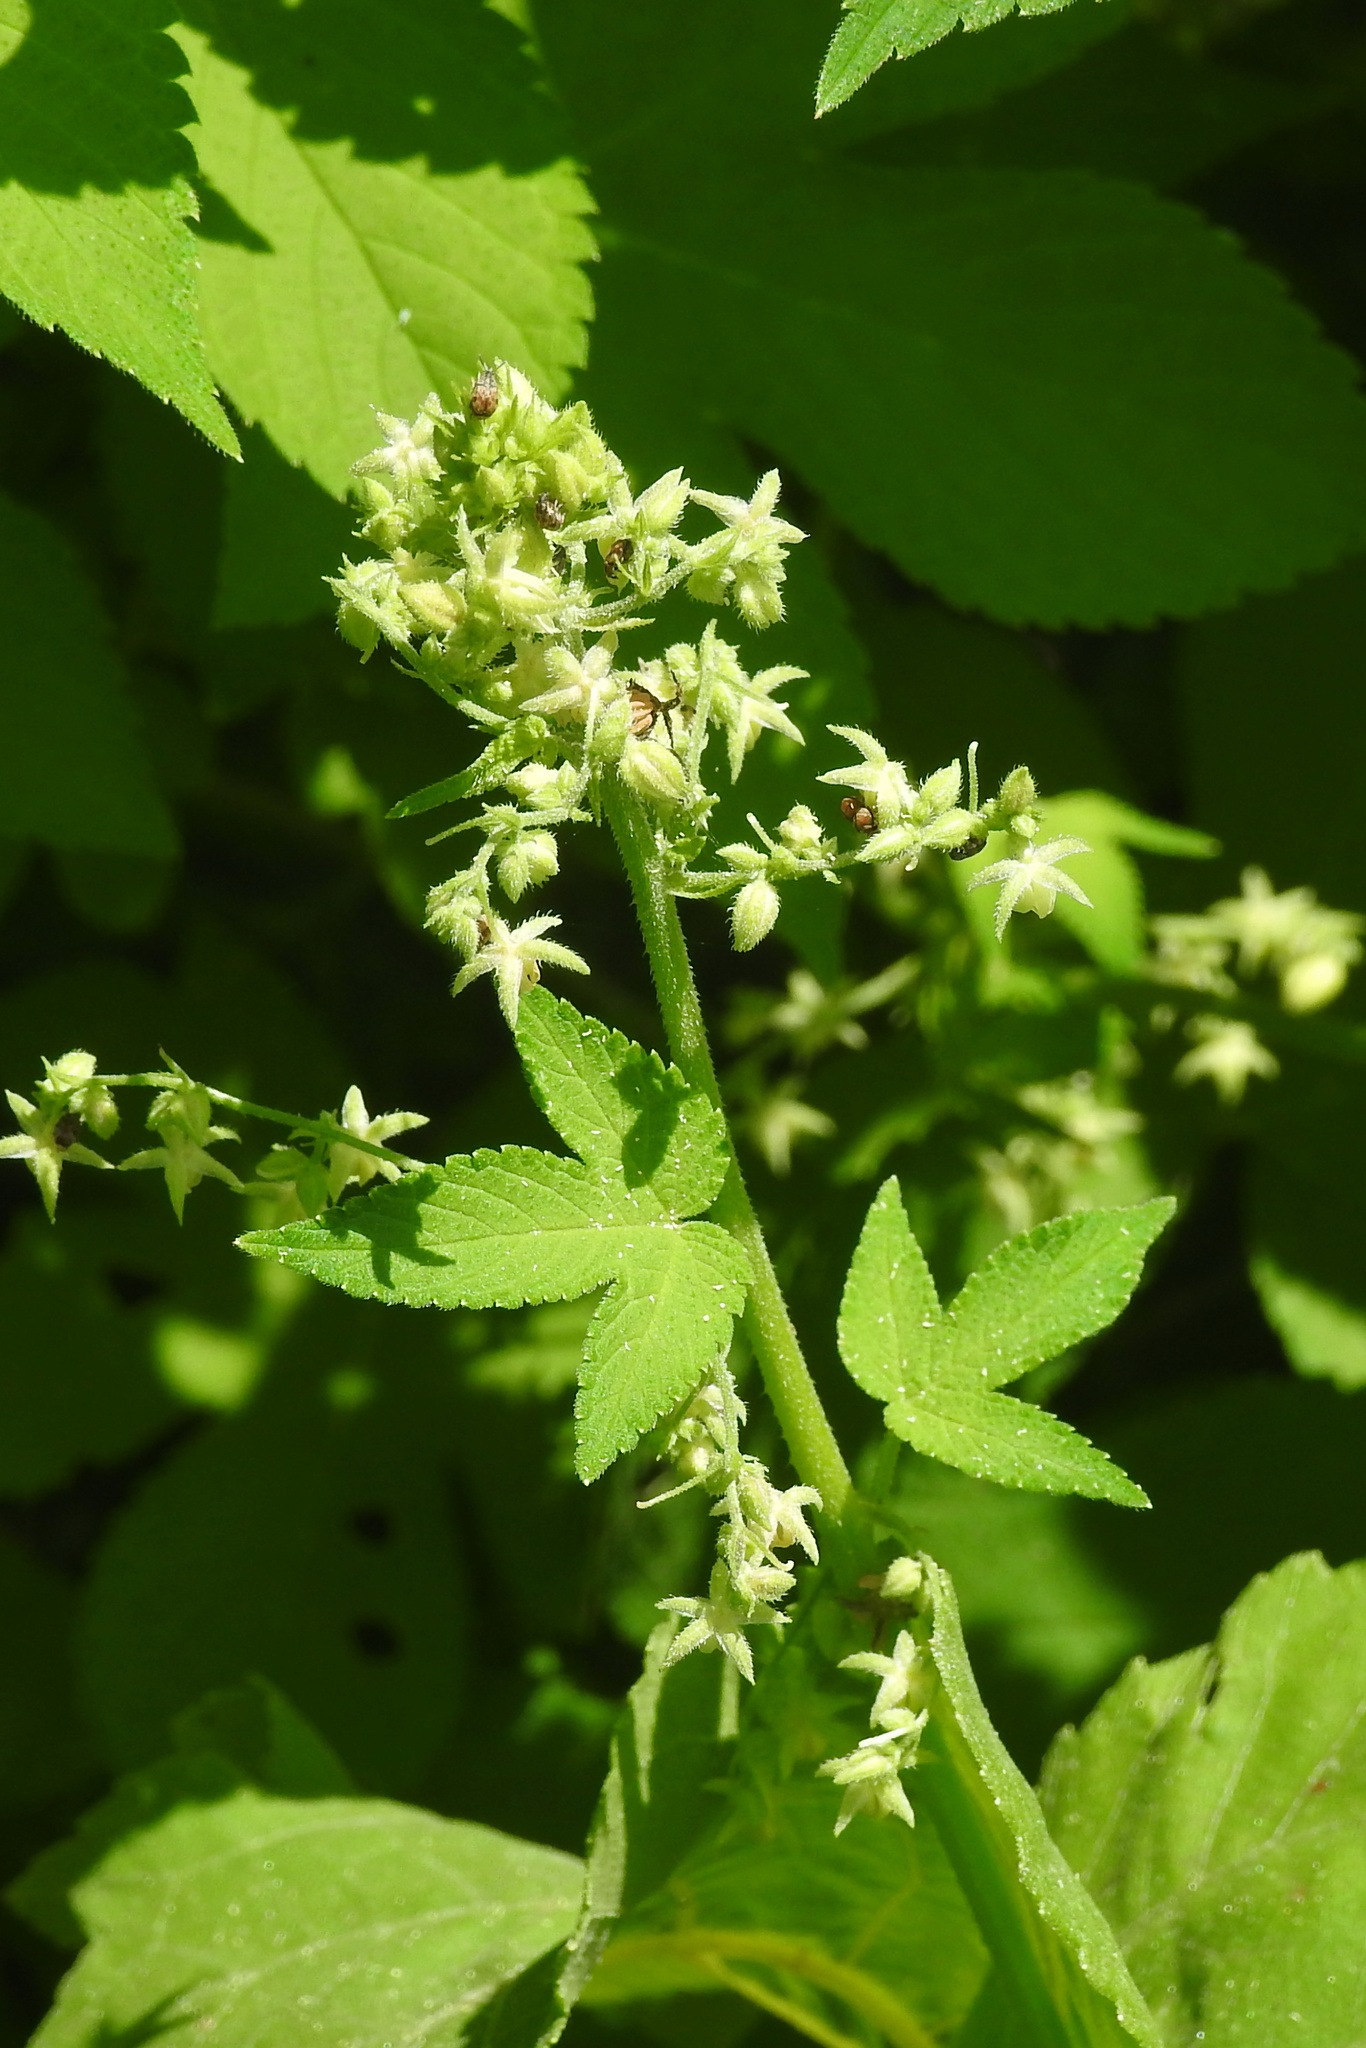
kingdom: Plantae
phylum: Tracheophyta
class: Magnoliopsida
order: Rosales
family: Cannabaceae
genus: Humulus
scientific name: Humulus scandens
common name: Japanese hop
